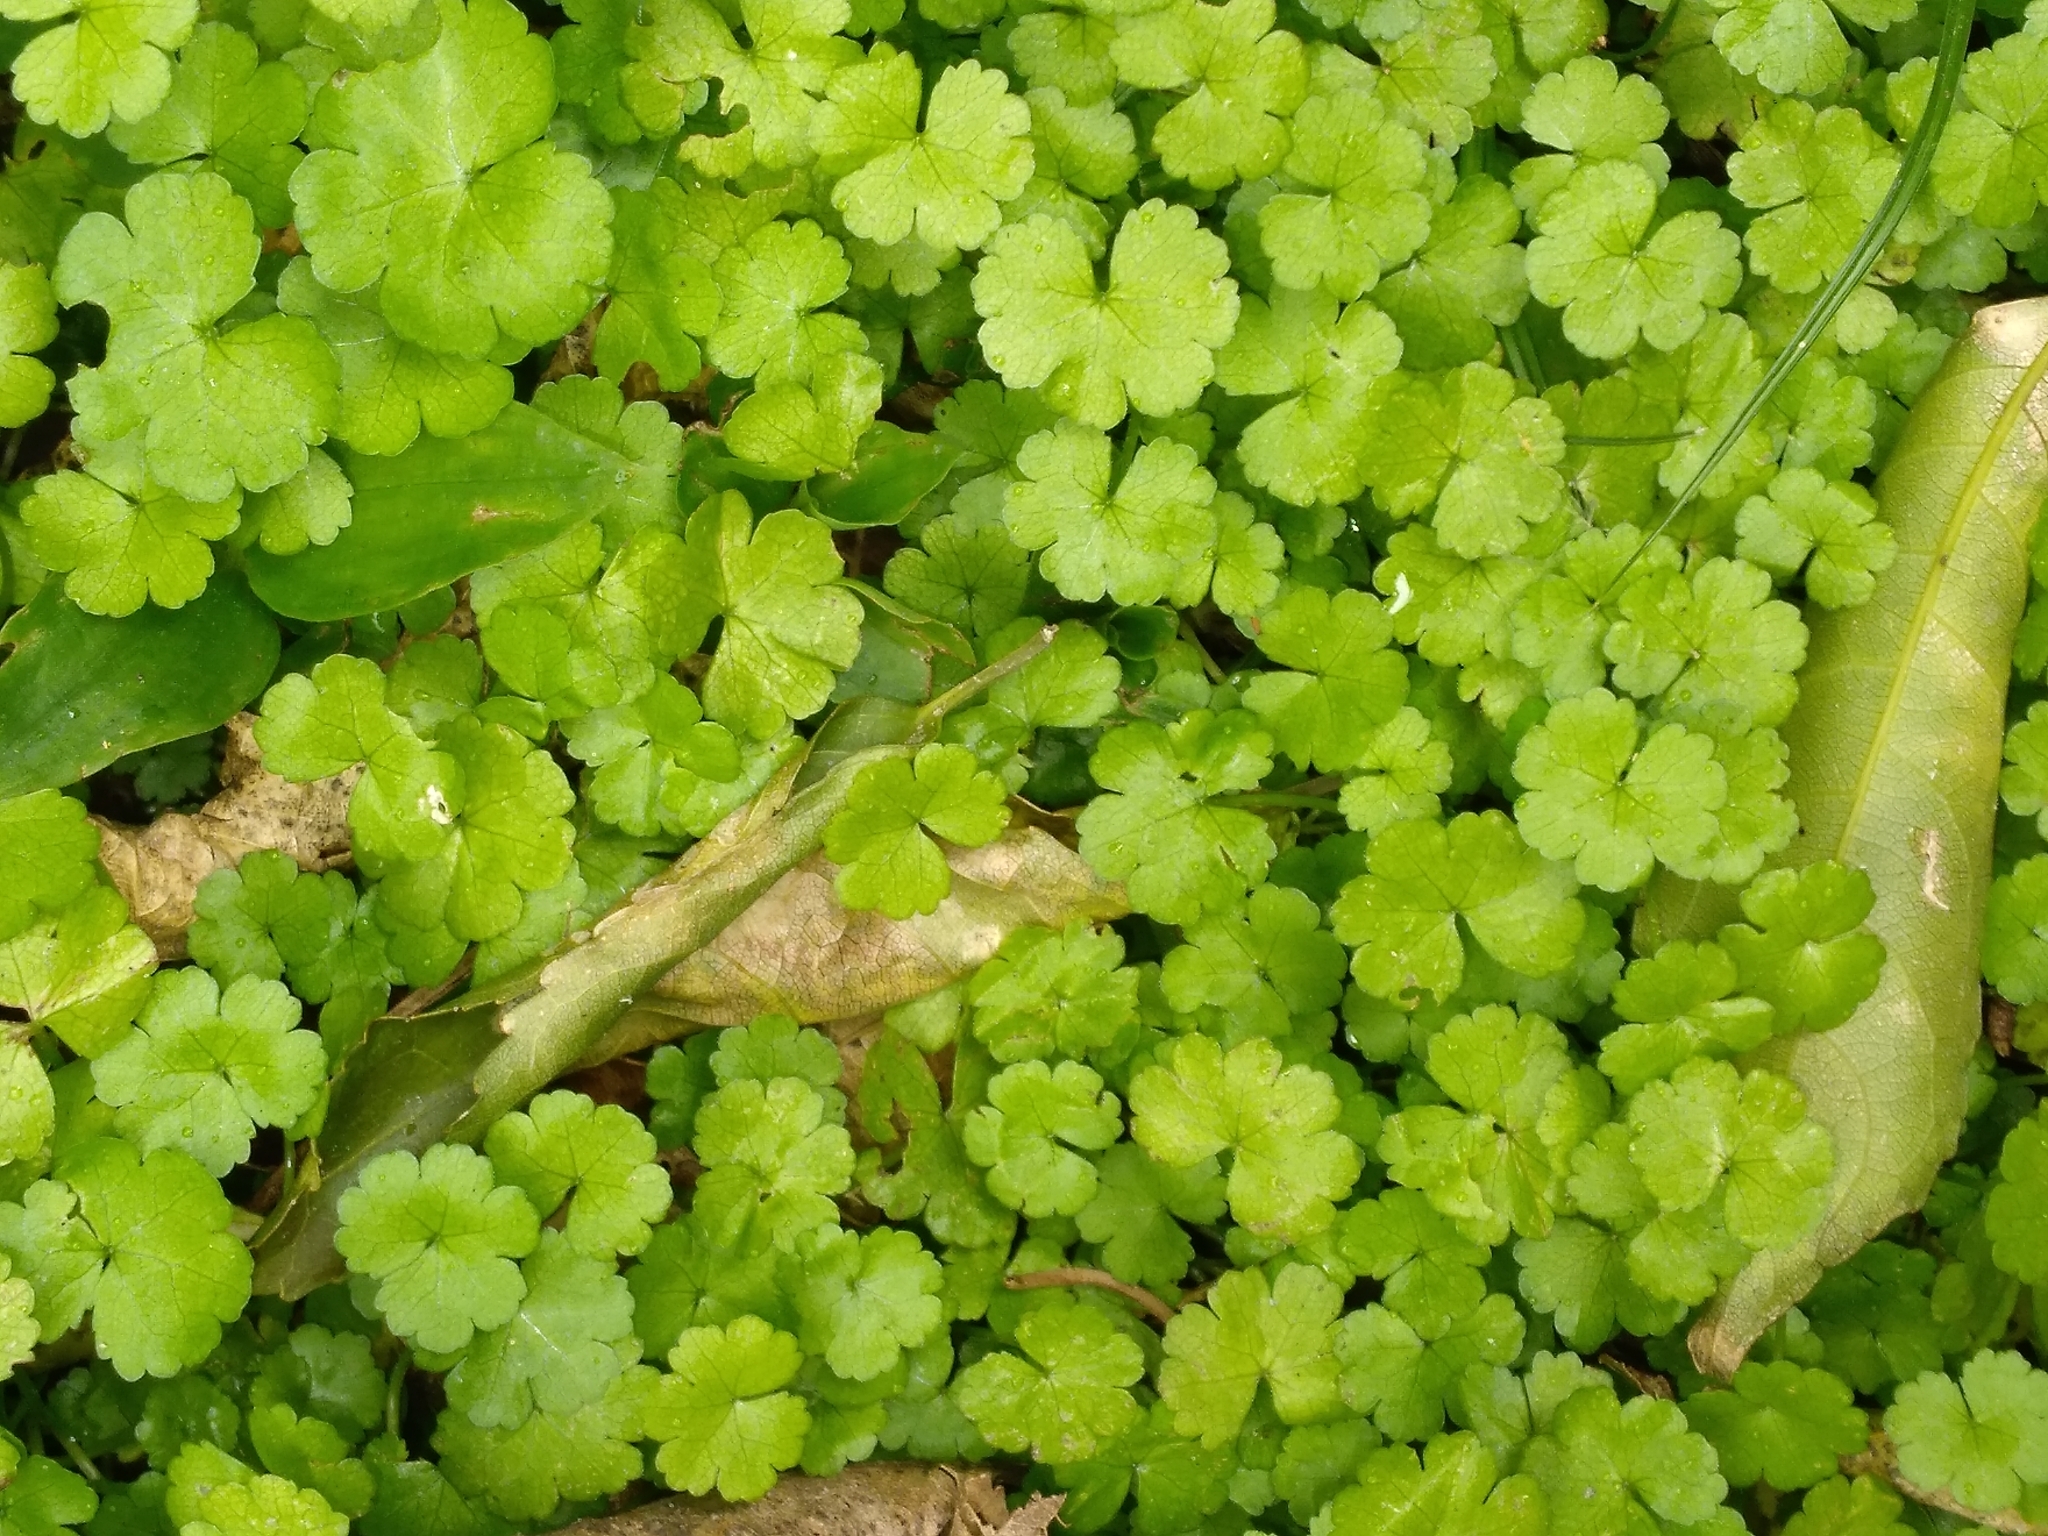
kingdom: Plantae
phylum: Tracheophyta
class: Magnoliopsida
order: Apiales
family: Araliaceae
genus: Hydrocotyle
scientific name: Hydrocotyle heteromeria
